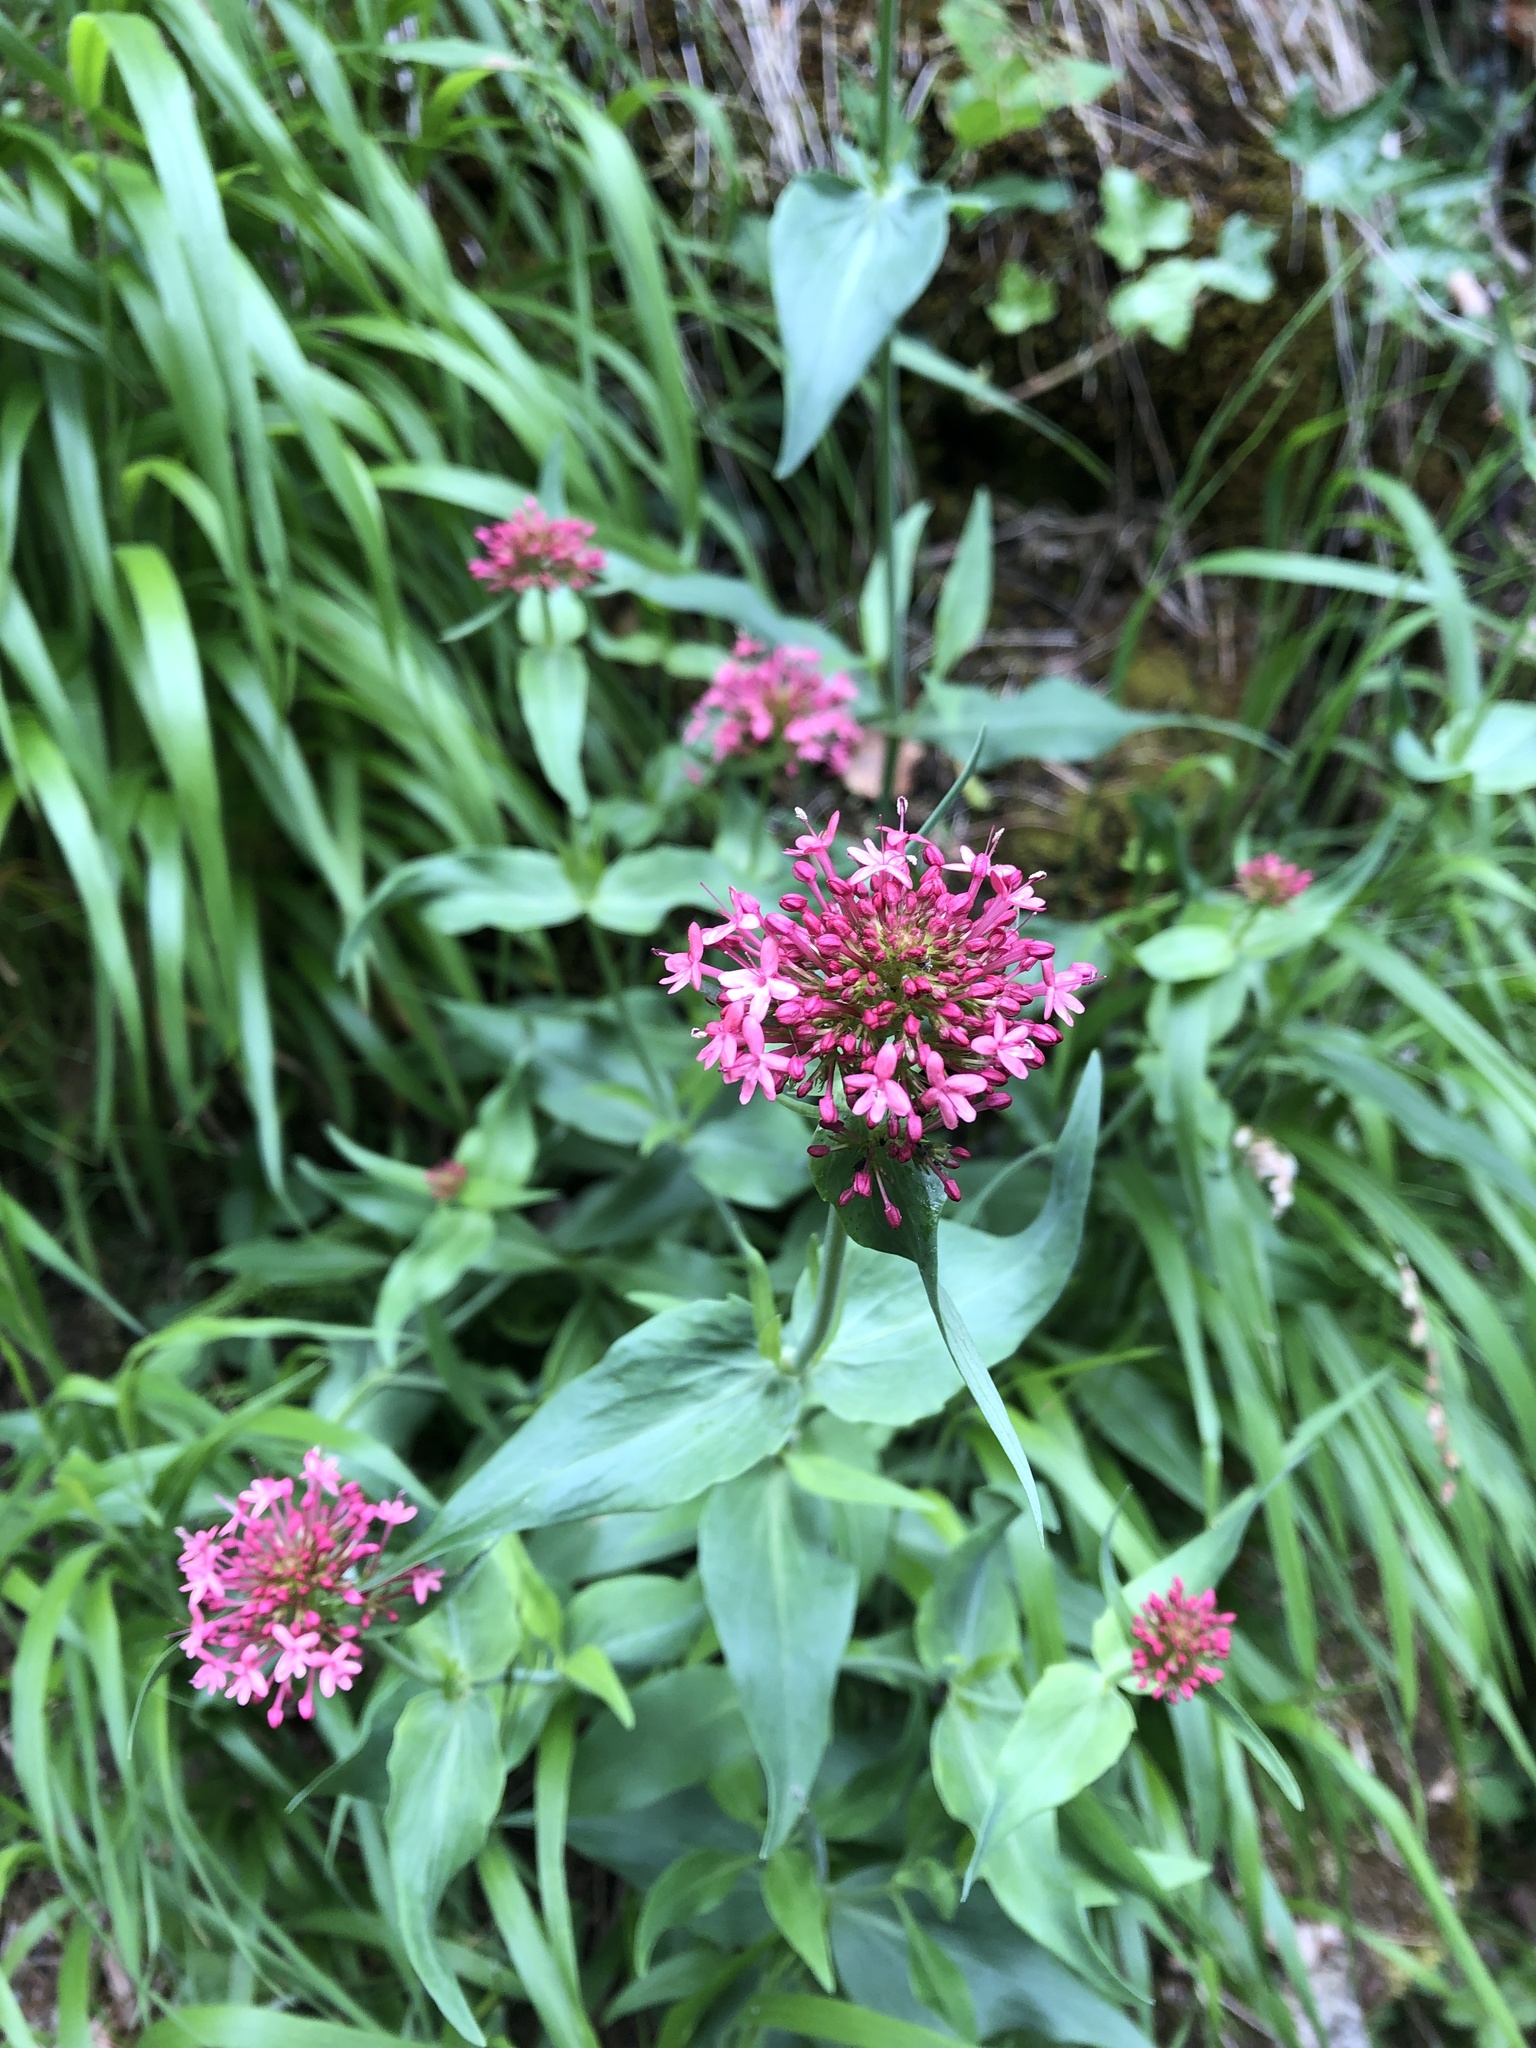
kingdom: Plantae
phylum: Tracheophyta
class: Magnoliopsida
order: Dipsacales
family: Caprifoliaceae
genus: Centranthus
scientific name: Centranthus ruber
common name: Red valerian
